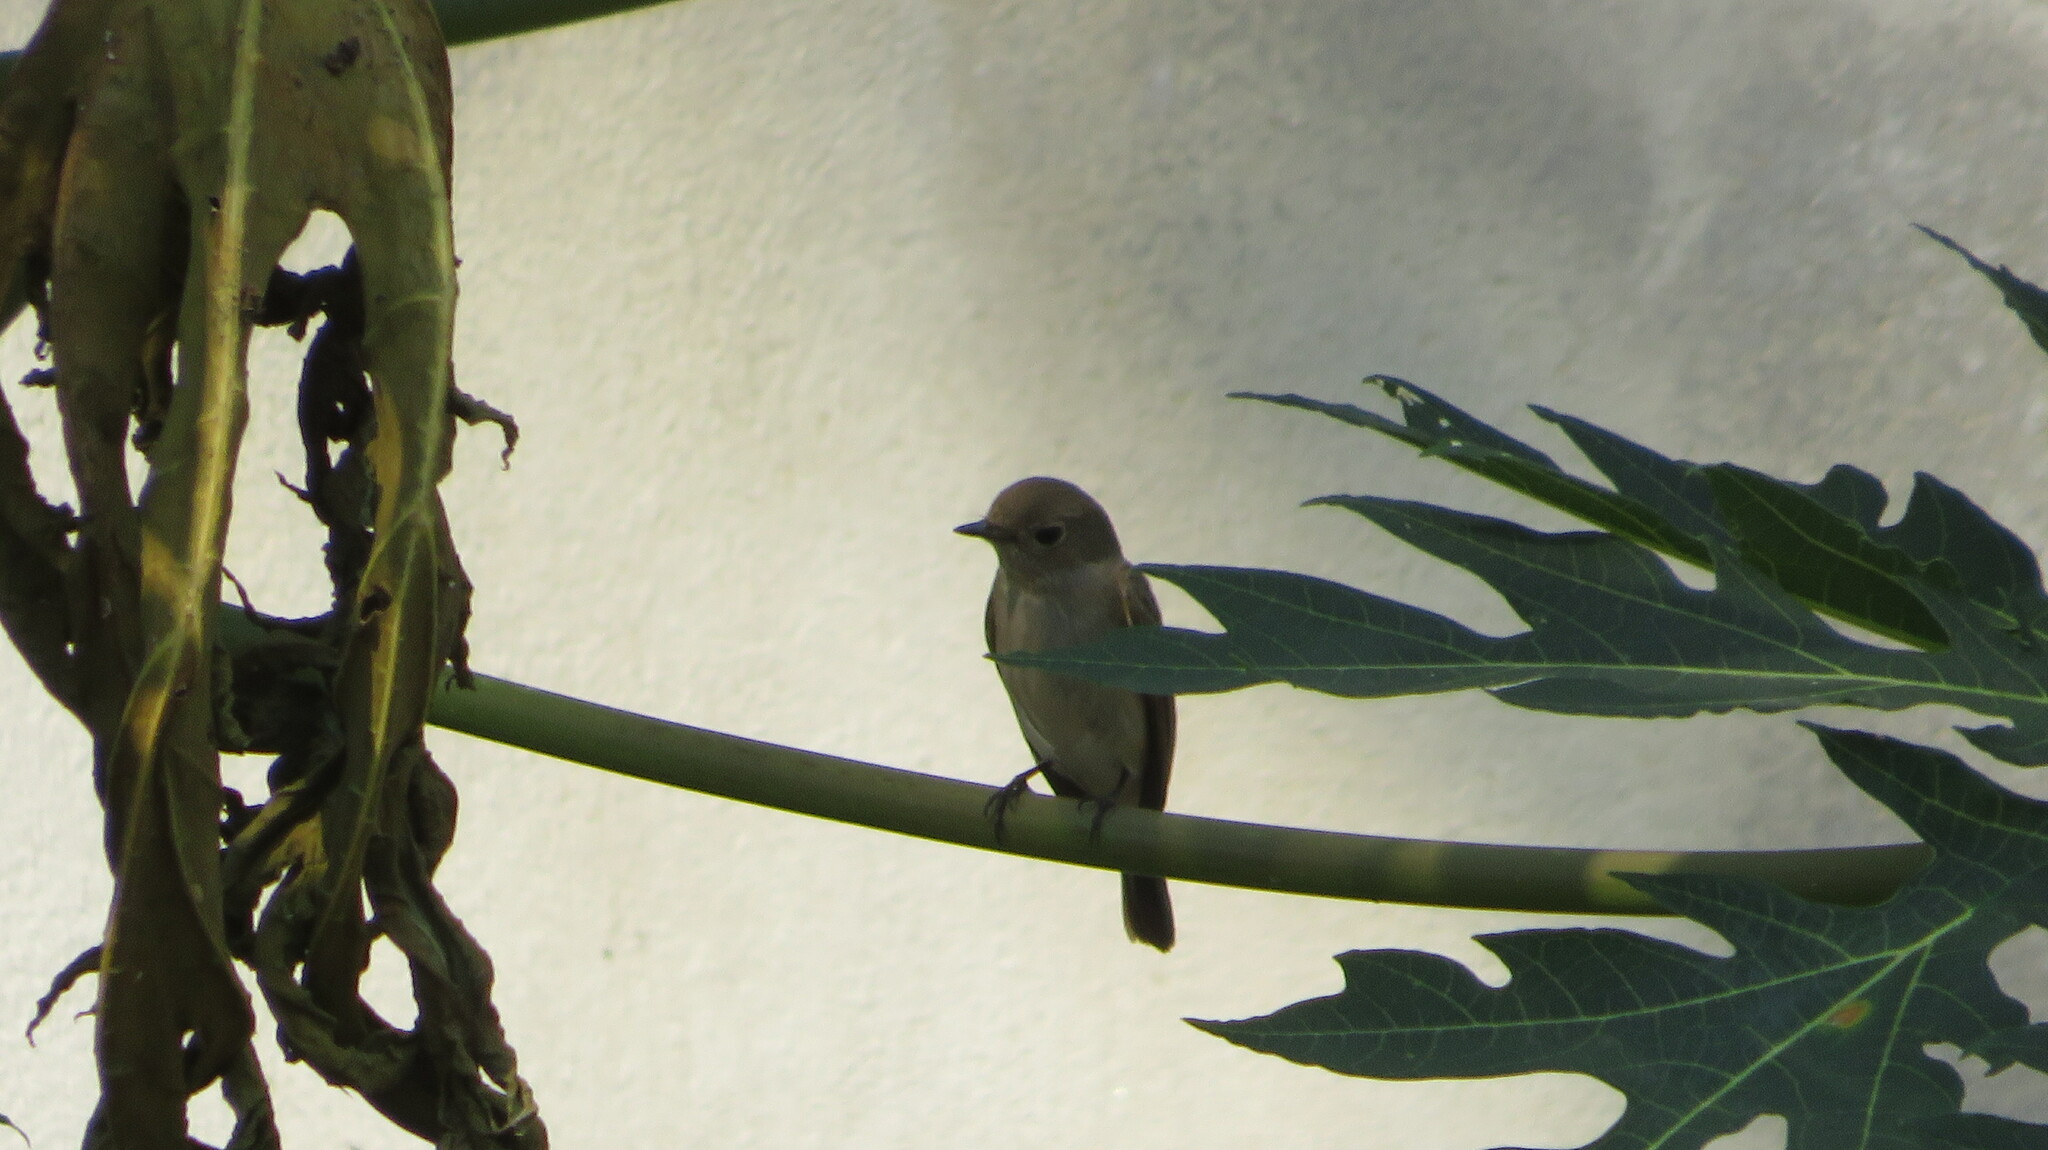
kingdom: Animalia
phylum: Chordata
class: Aves
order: Passeriformes
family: Muscicapidae
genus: Ficedula
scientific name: Ficedula albicilla
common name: Taiga flycatcher
